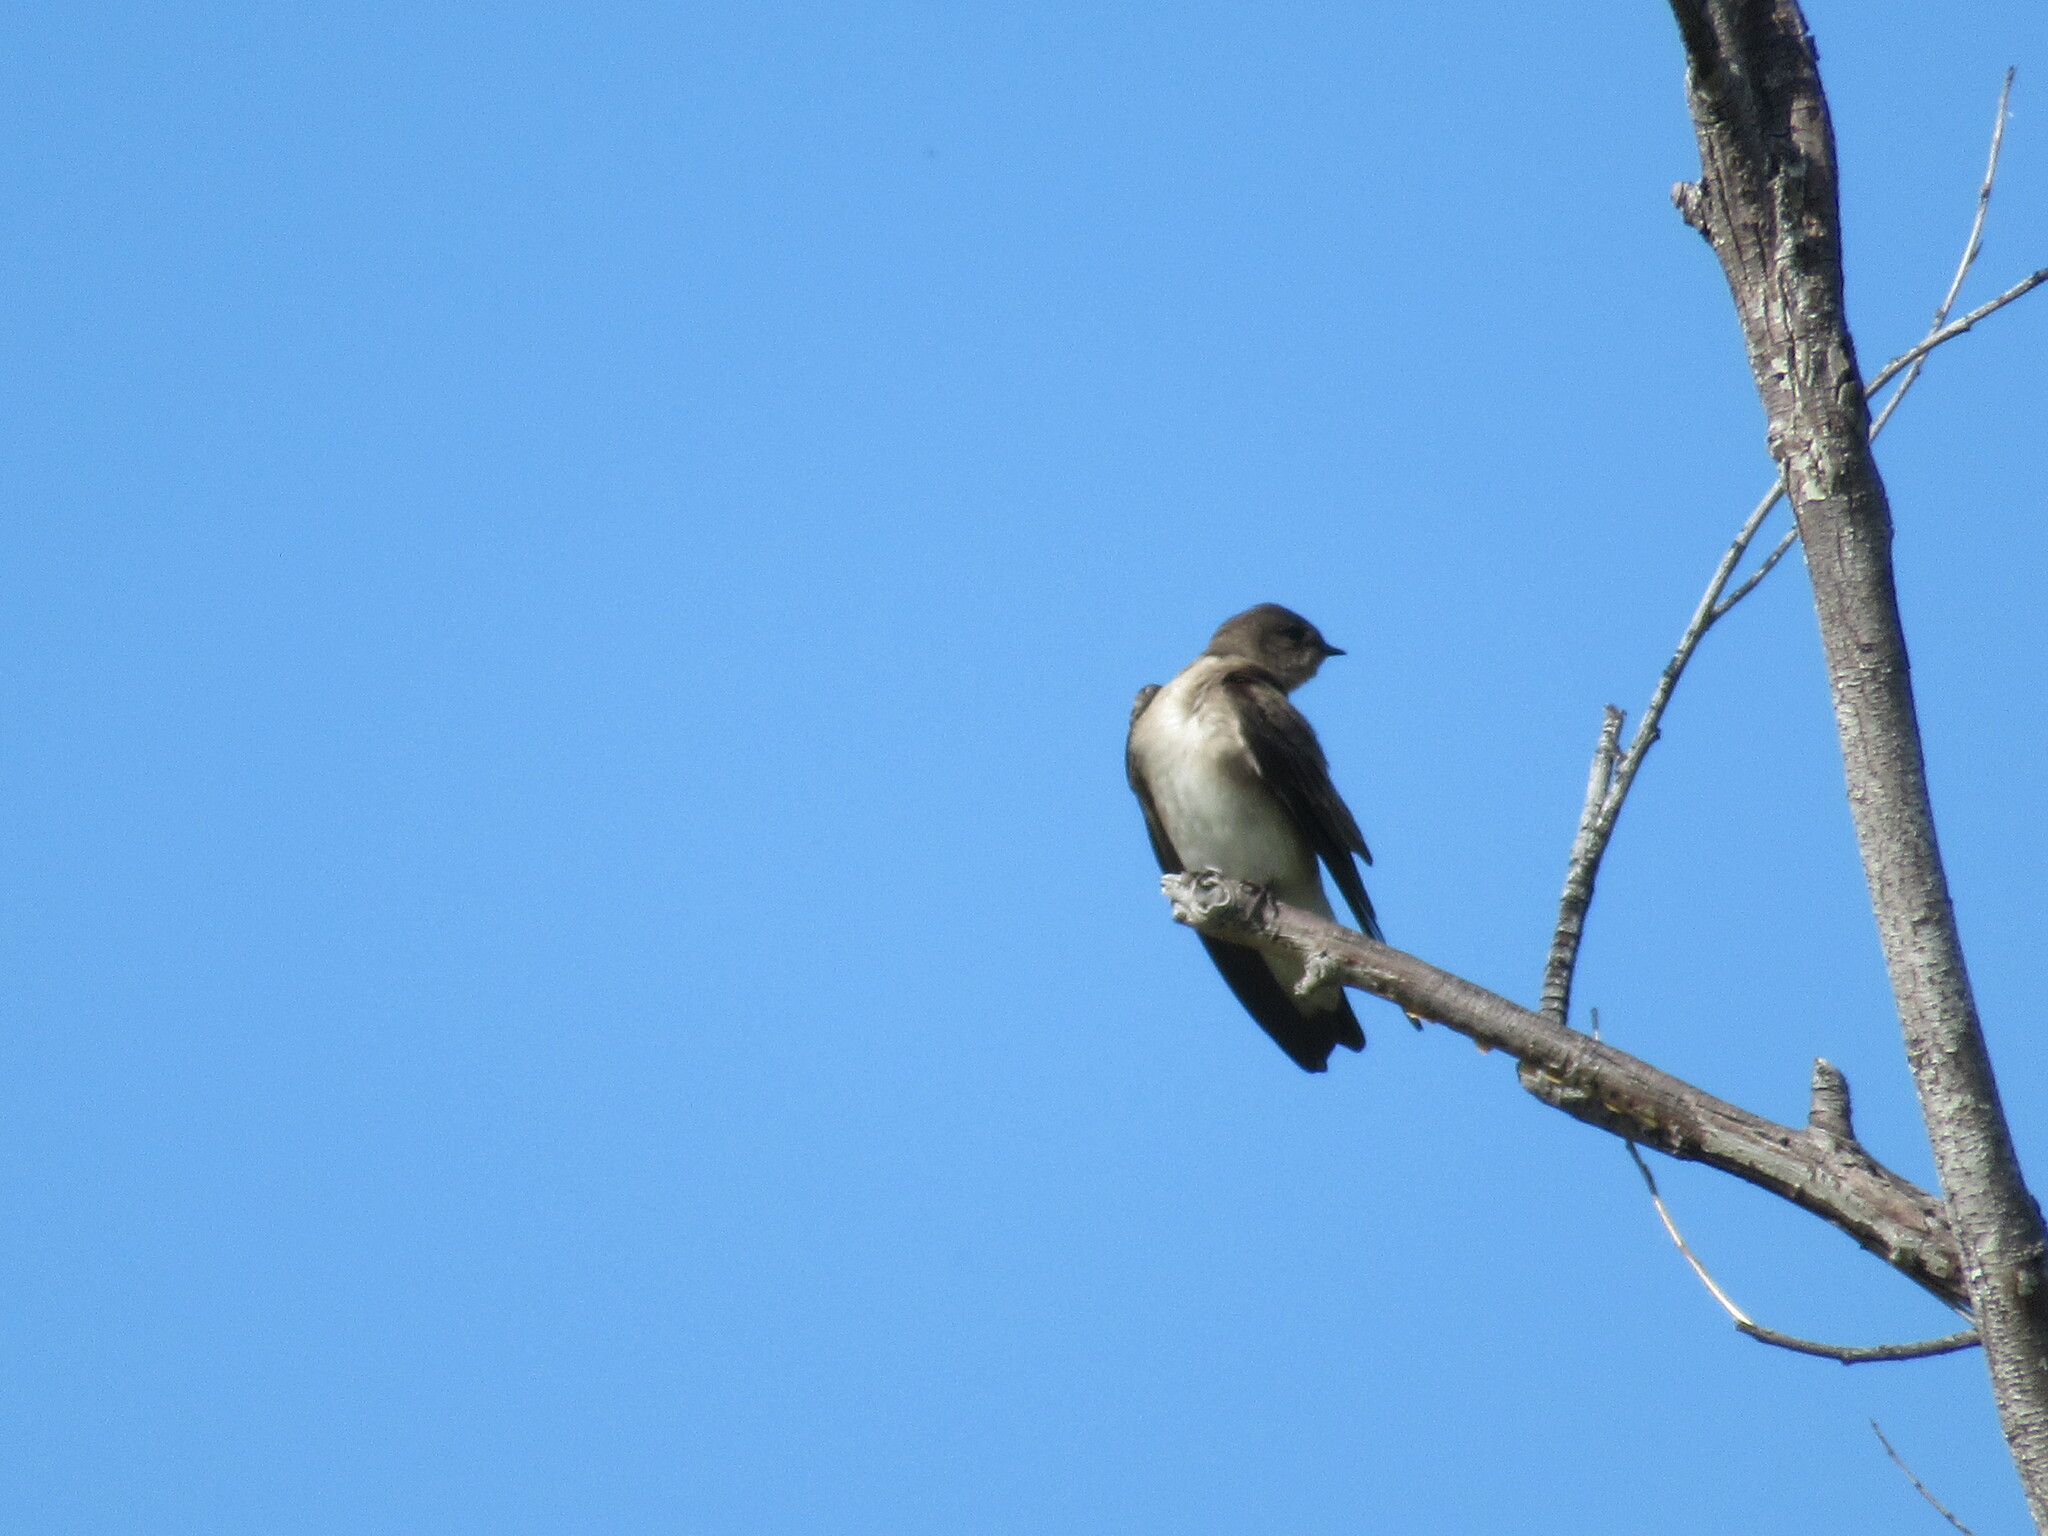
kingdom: Animalia
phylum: Chordata
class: Aves
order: Passeriformes
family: Hirundinidae
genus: Stelgidopteryx
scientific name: Stelgidopteryx serripennis
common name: Northern rough-winged swallow
